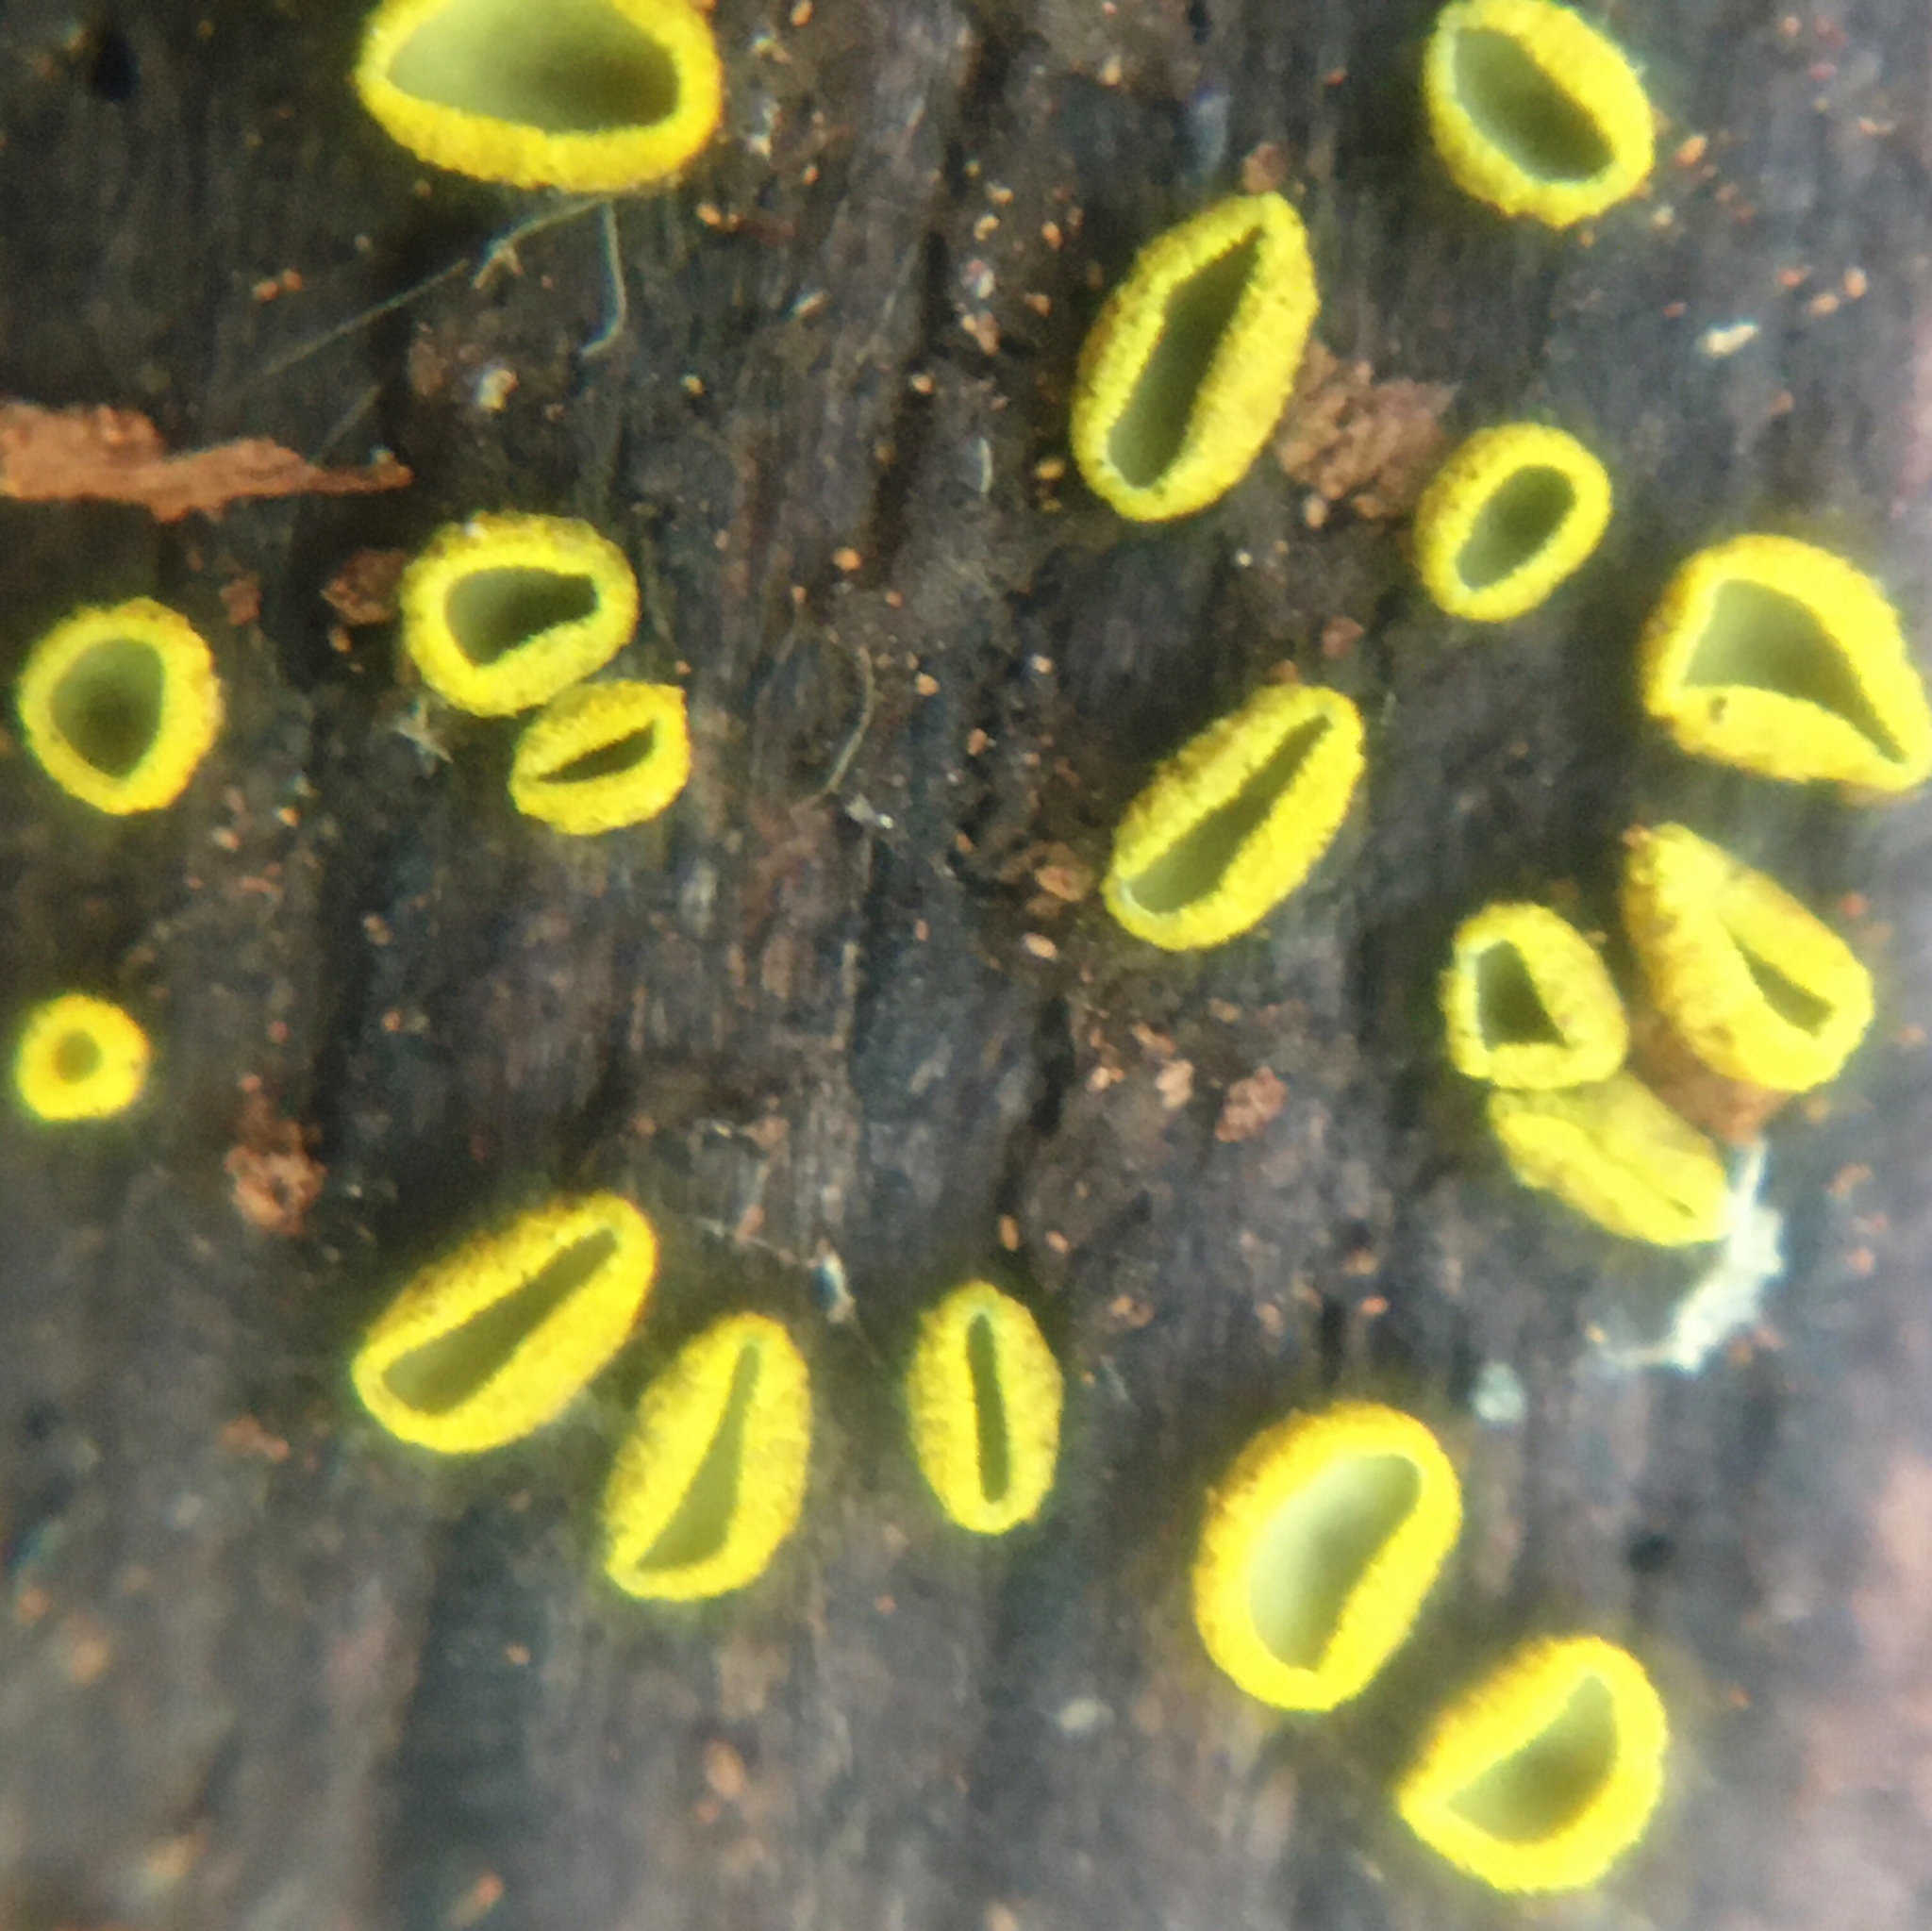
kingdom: Fungi
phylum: Ascomycota
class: Leotiomycetes
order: Helotiales
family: Chlorospleniaceae
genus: Chlorosplenium
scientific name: Chlorosplenium chlora
